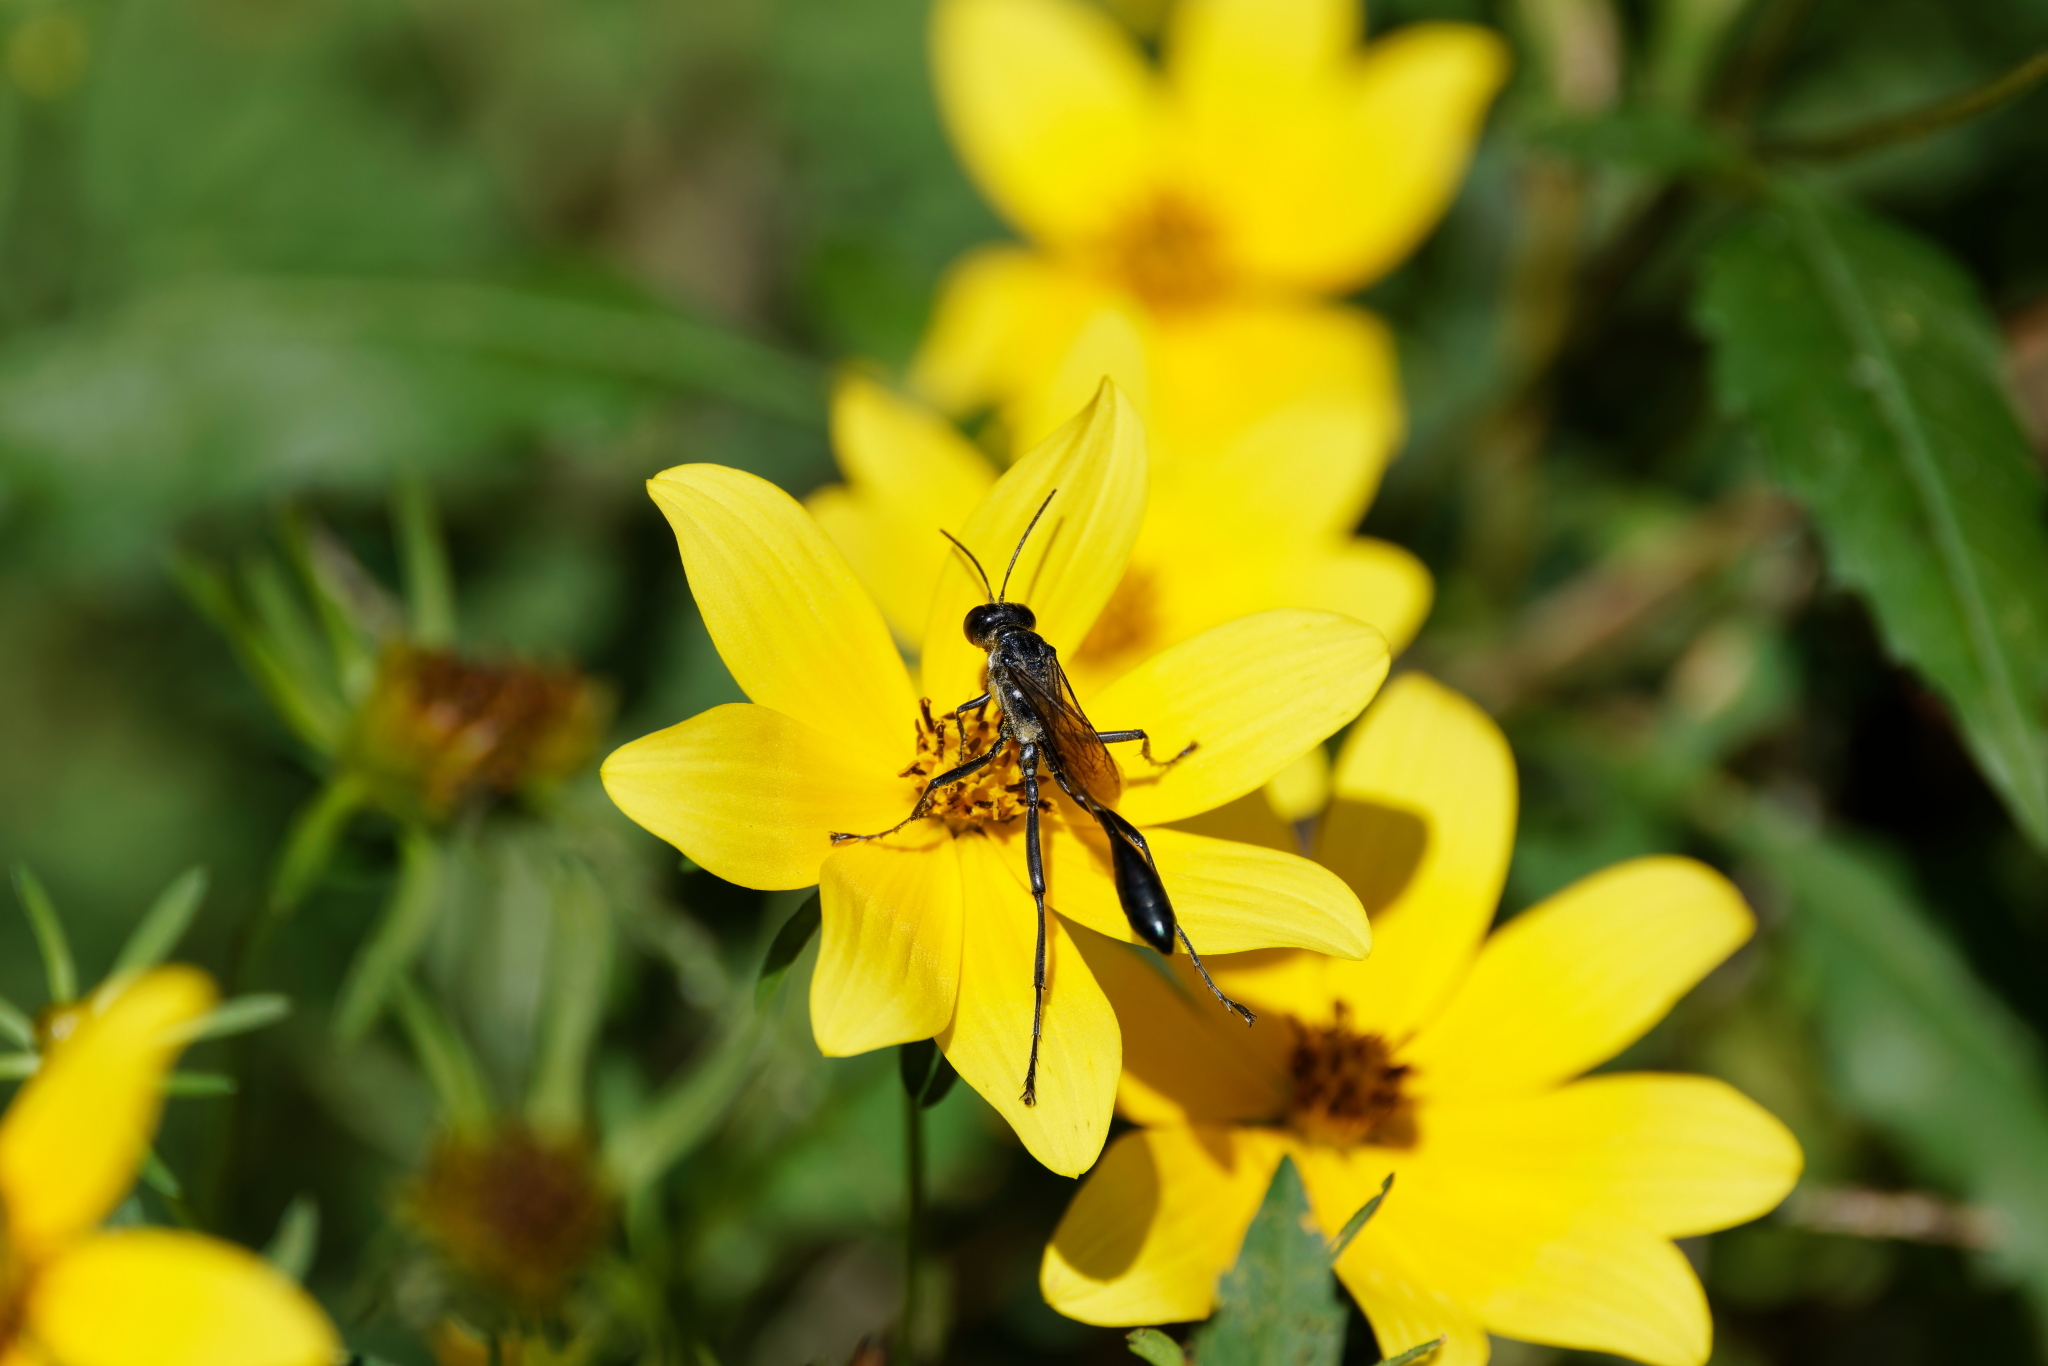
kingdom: Animalia
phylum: Arthropoda
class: Insecta
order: Hymenoptera
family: Sphecidae
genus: Eremnophila
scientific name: Eremnophila aureonotata
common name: Gold-marked thread-waisted wasp
